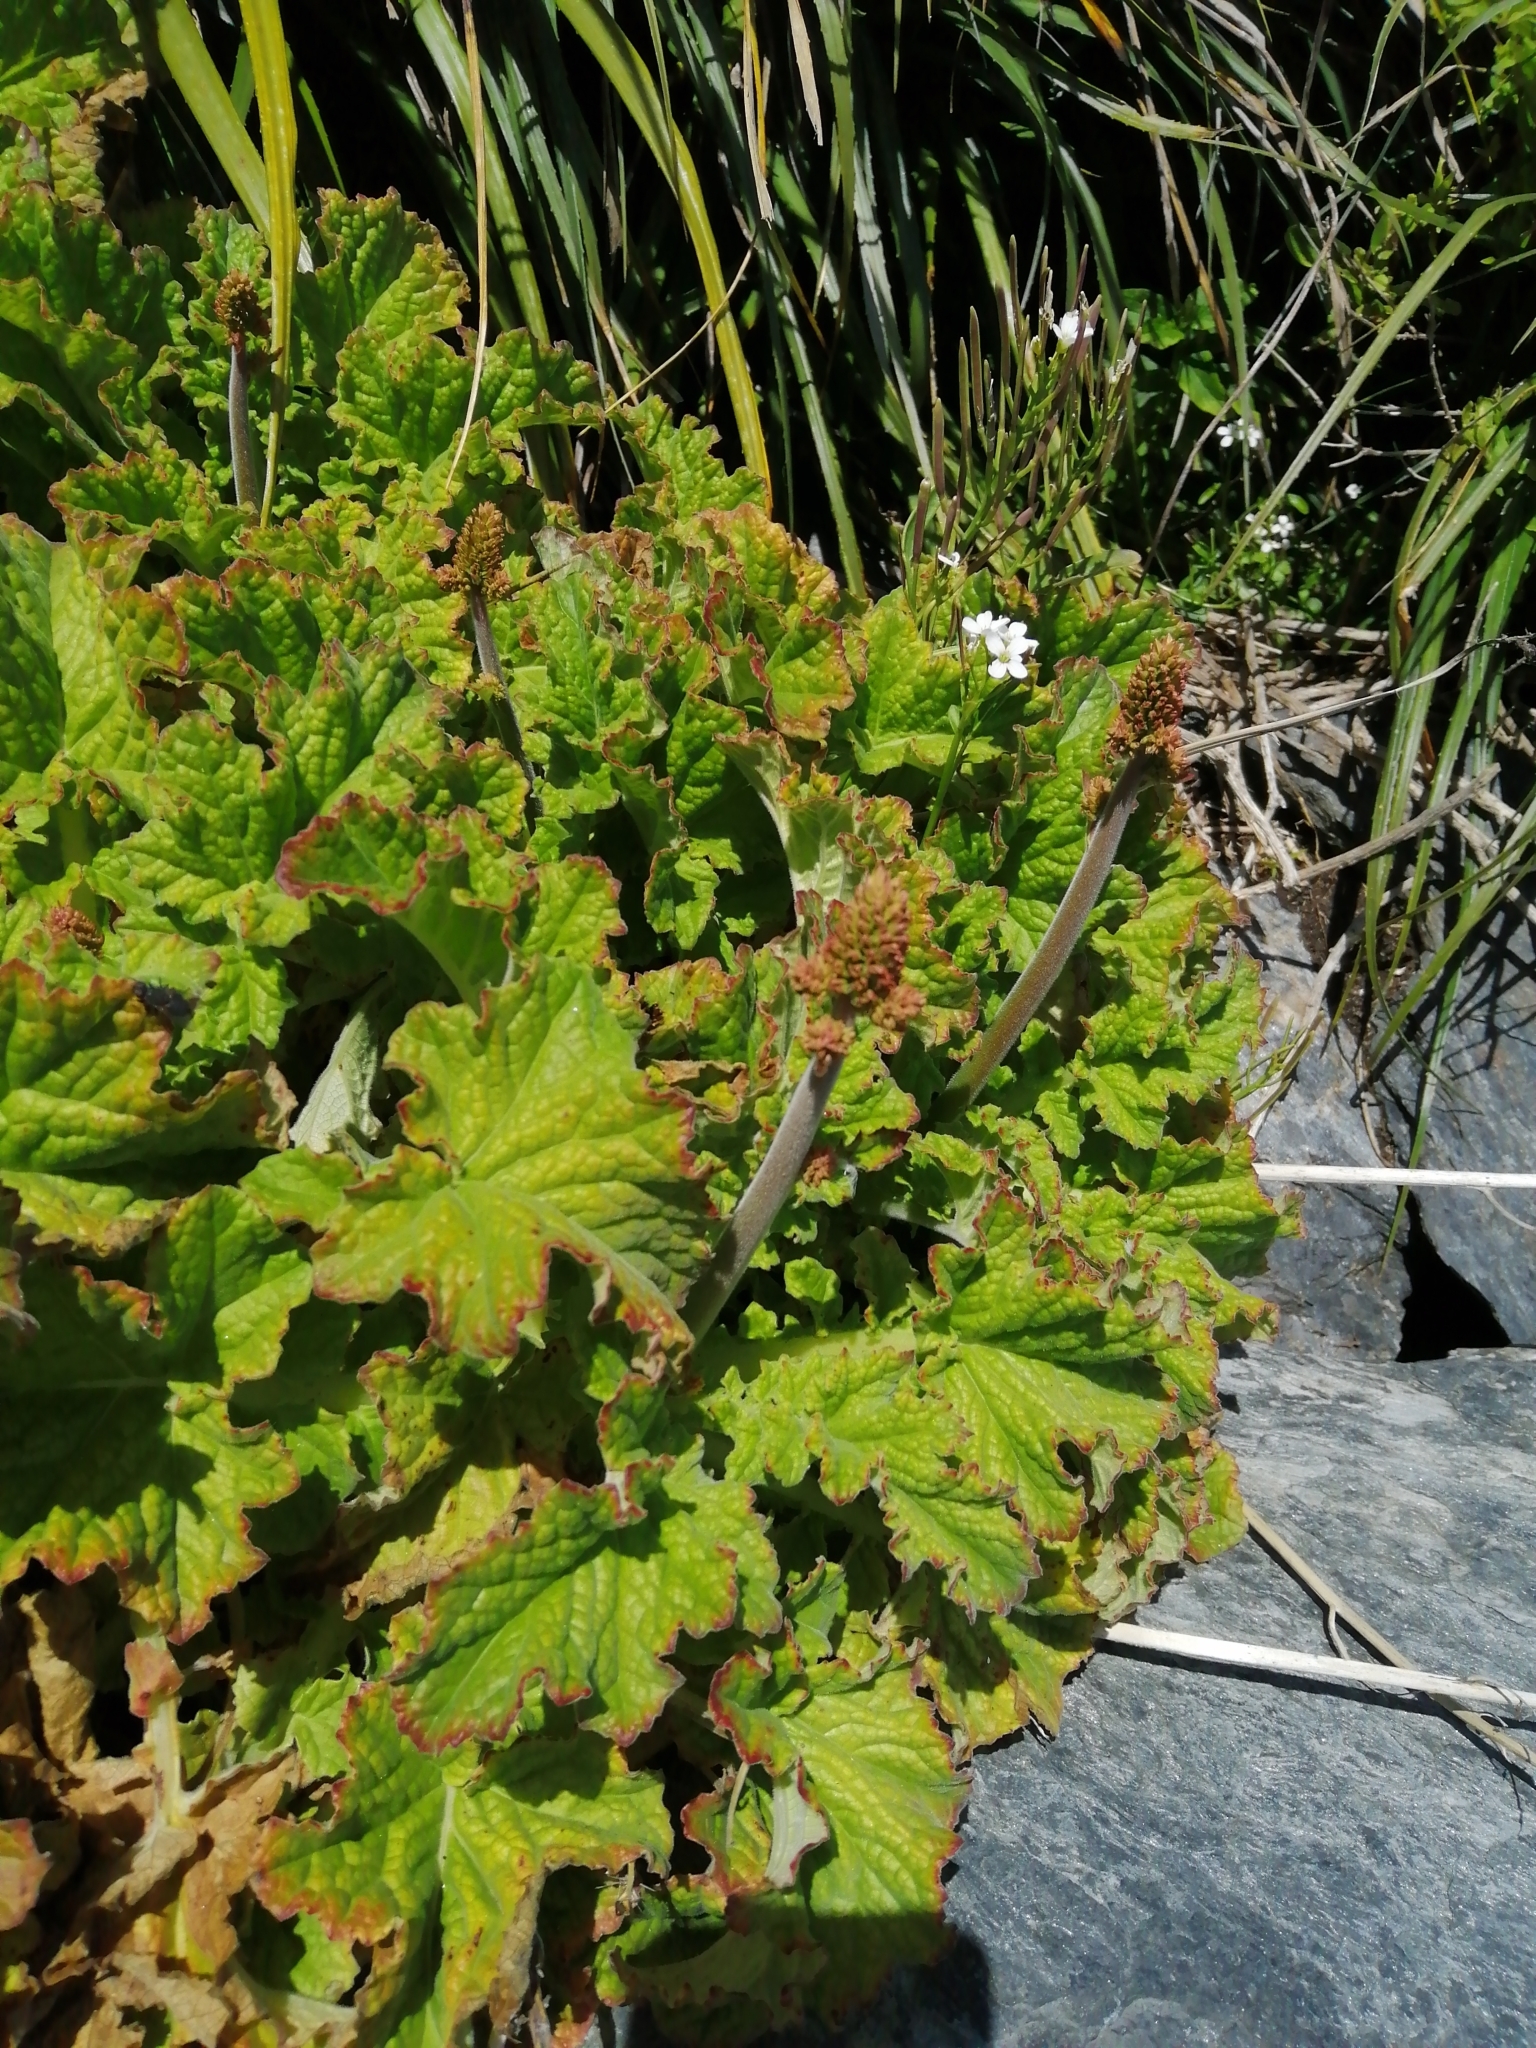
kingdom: Plantae
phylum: Tracheophyta
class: Magnoliopsida
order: Geraniales
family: Francoaceae
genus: Francoa
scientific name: Francoa appendiculata
